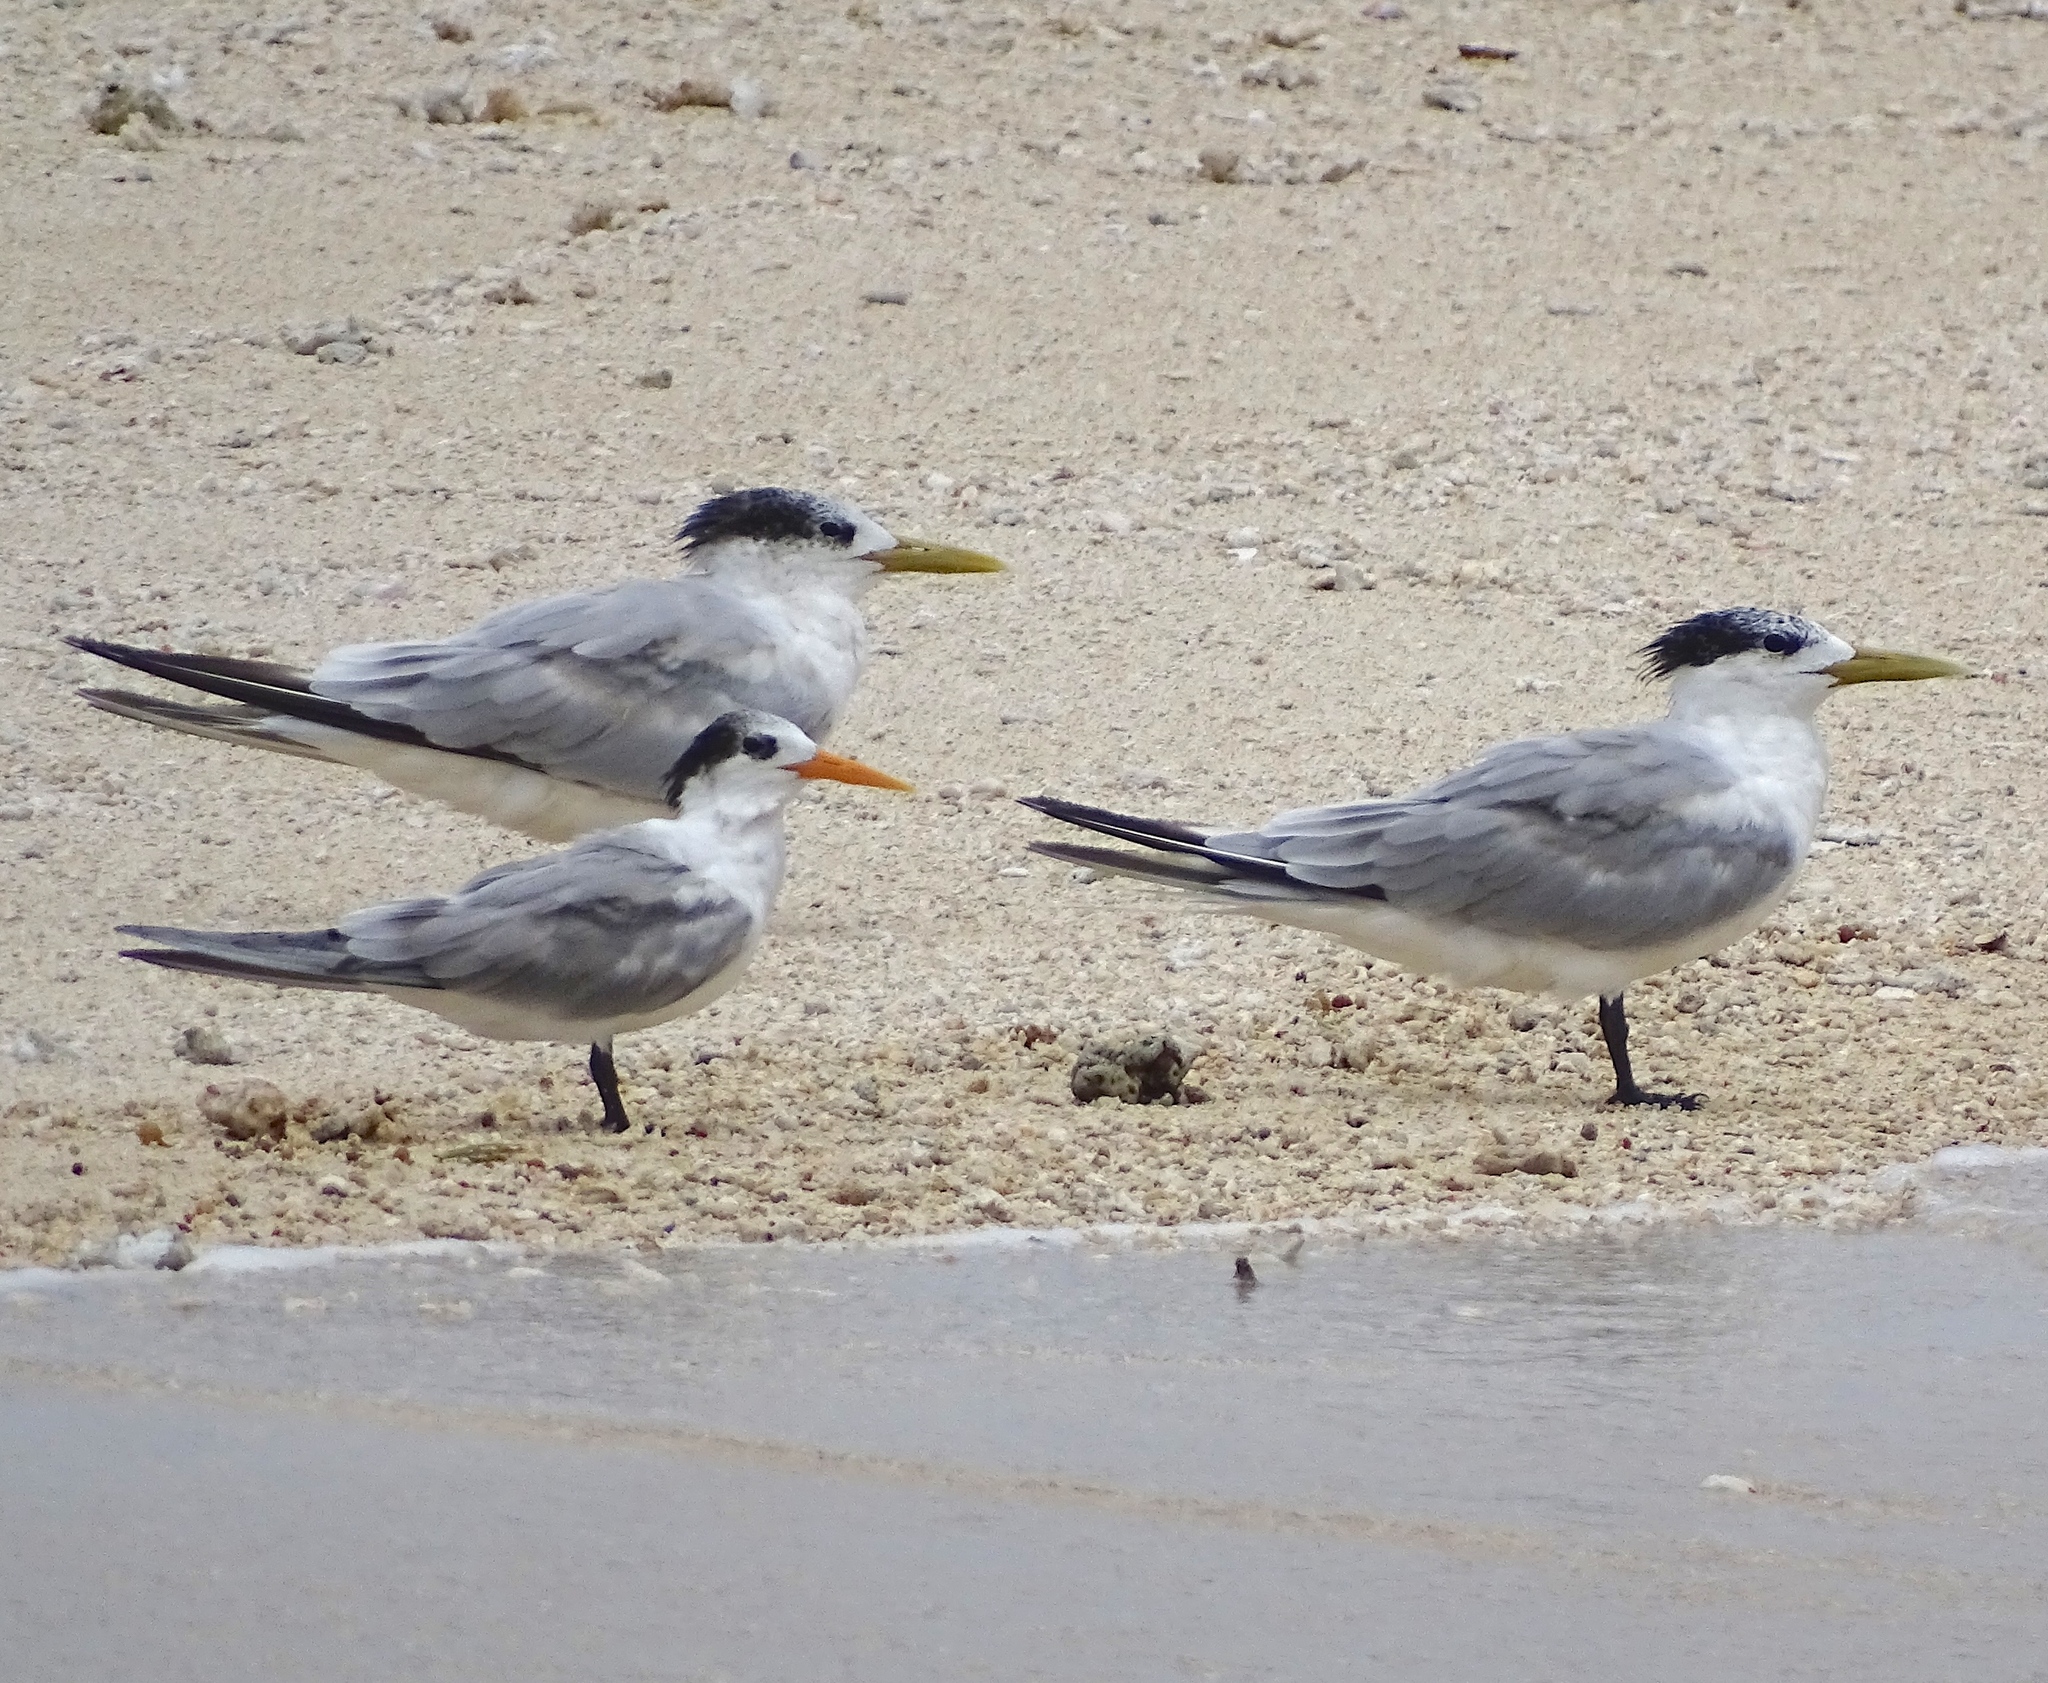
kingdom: Animalia
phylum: Chordata
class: Aves
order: Charadriiformes
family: Laridae
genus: Thalasseus
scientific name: Thalasseus bengalensis
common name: Lesser crested tern
